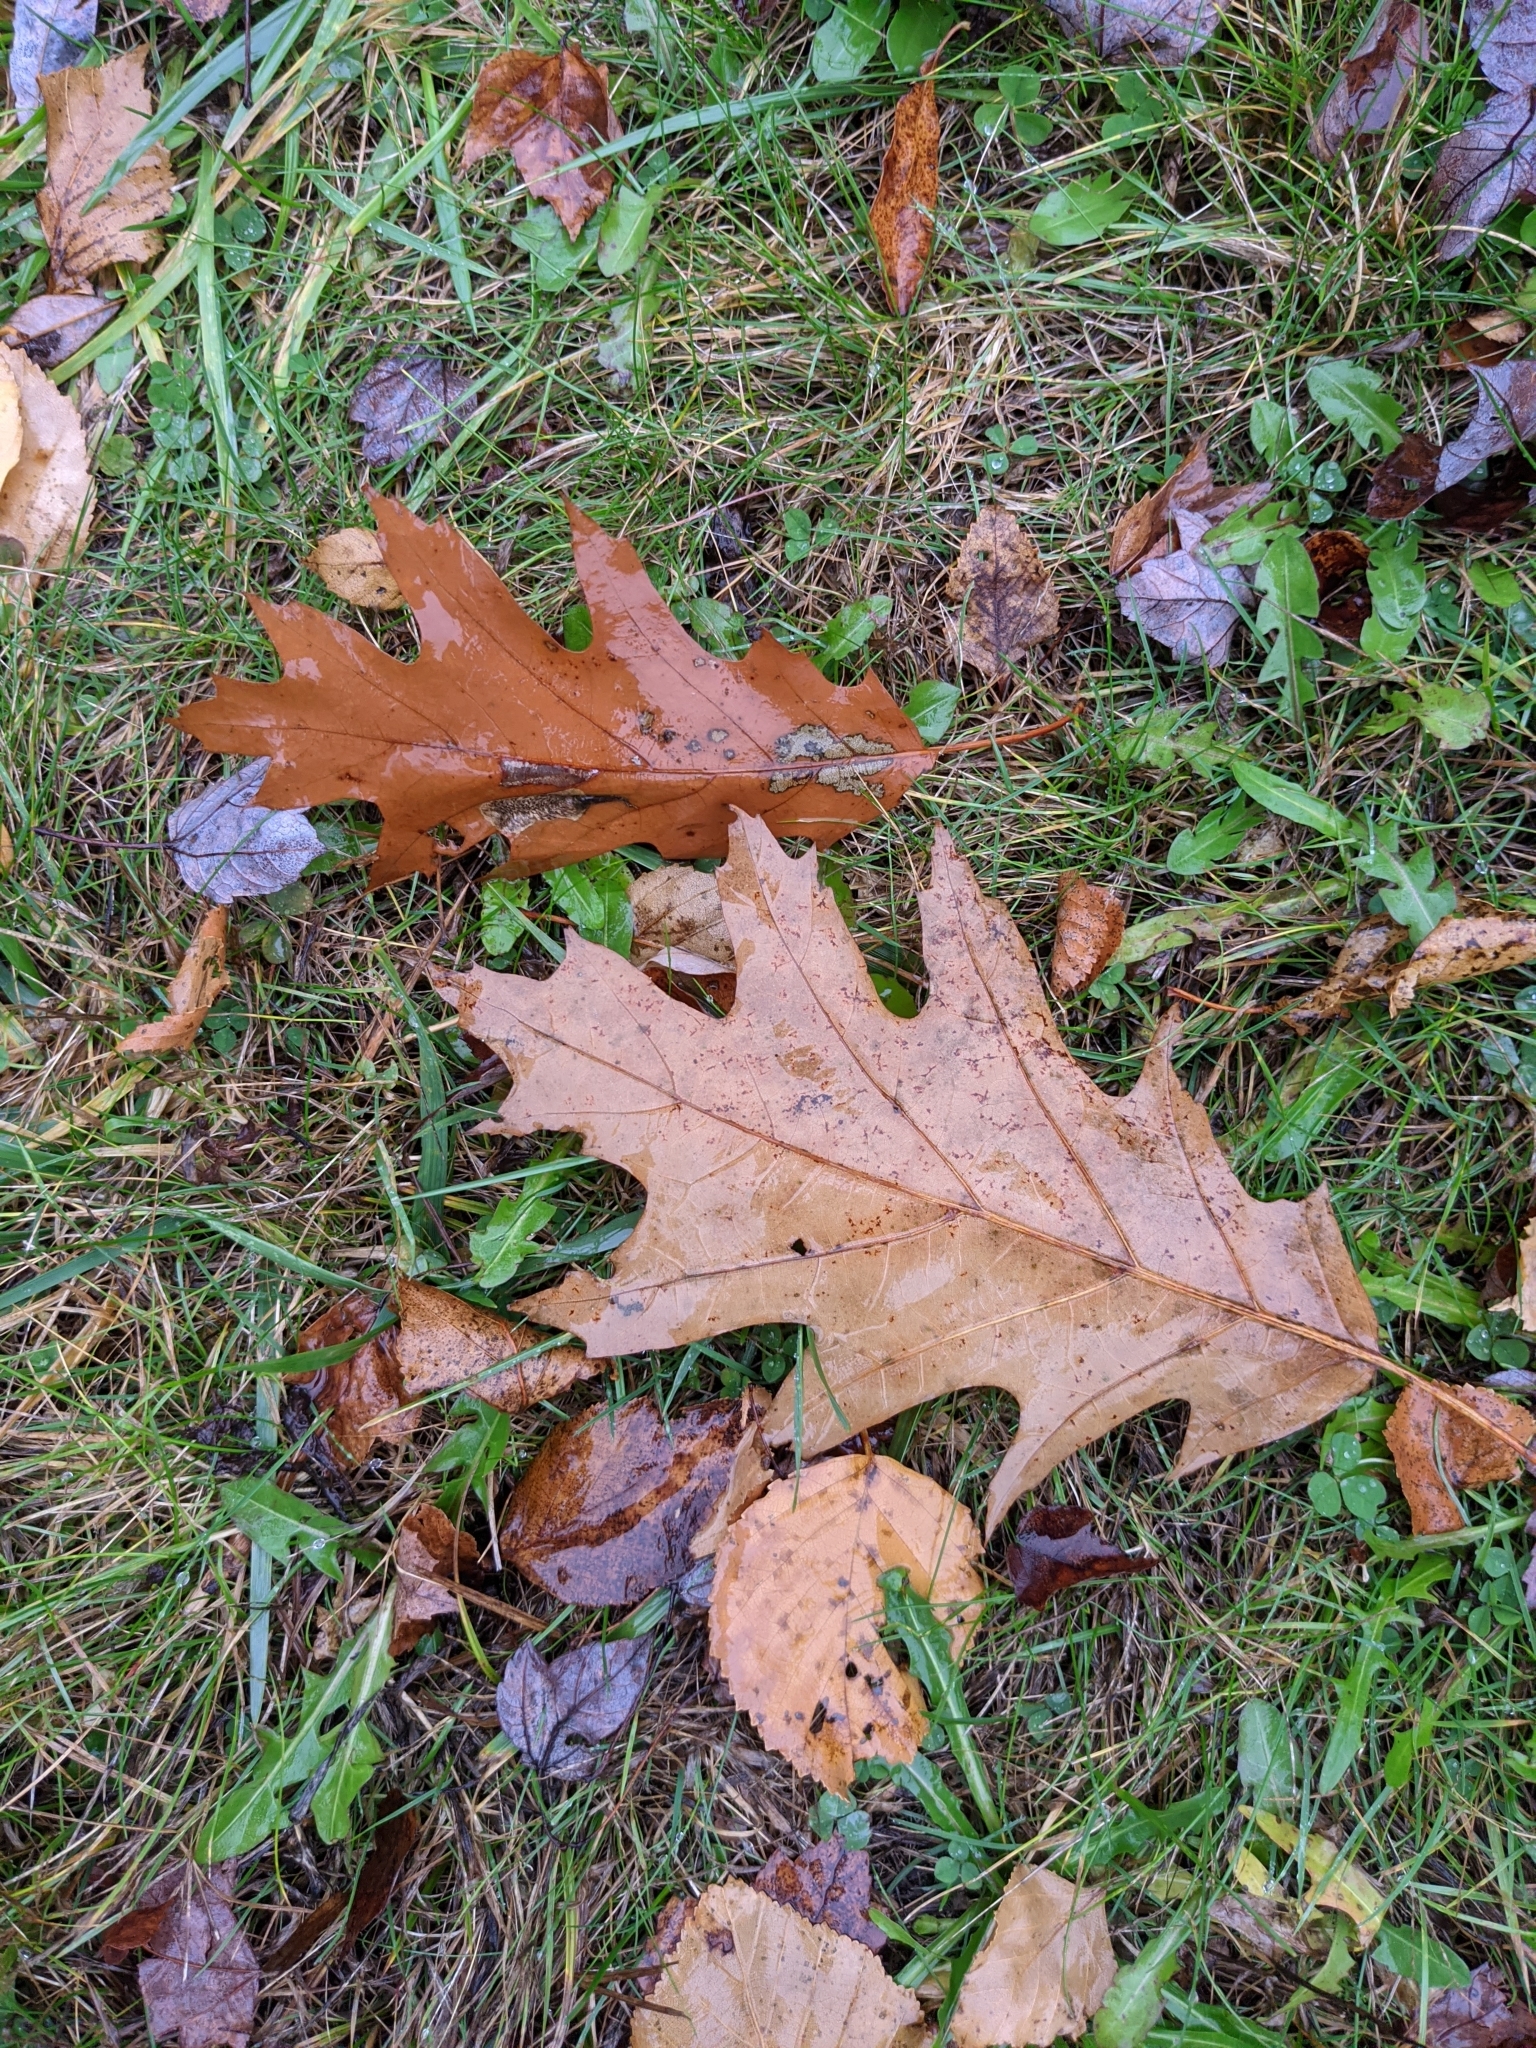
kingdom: Plantae
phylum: Tracheophyta
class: Magnoliopsida
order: Fagales
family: Fagaceae
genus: Quercus
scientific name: Quercus rubra
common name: Red oak
